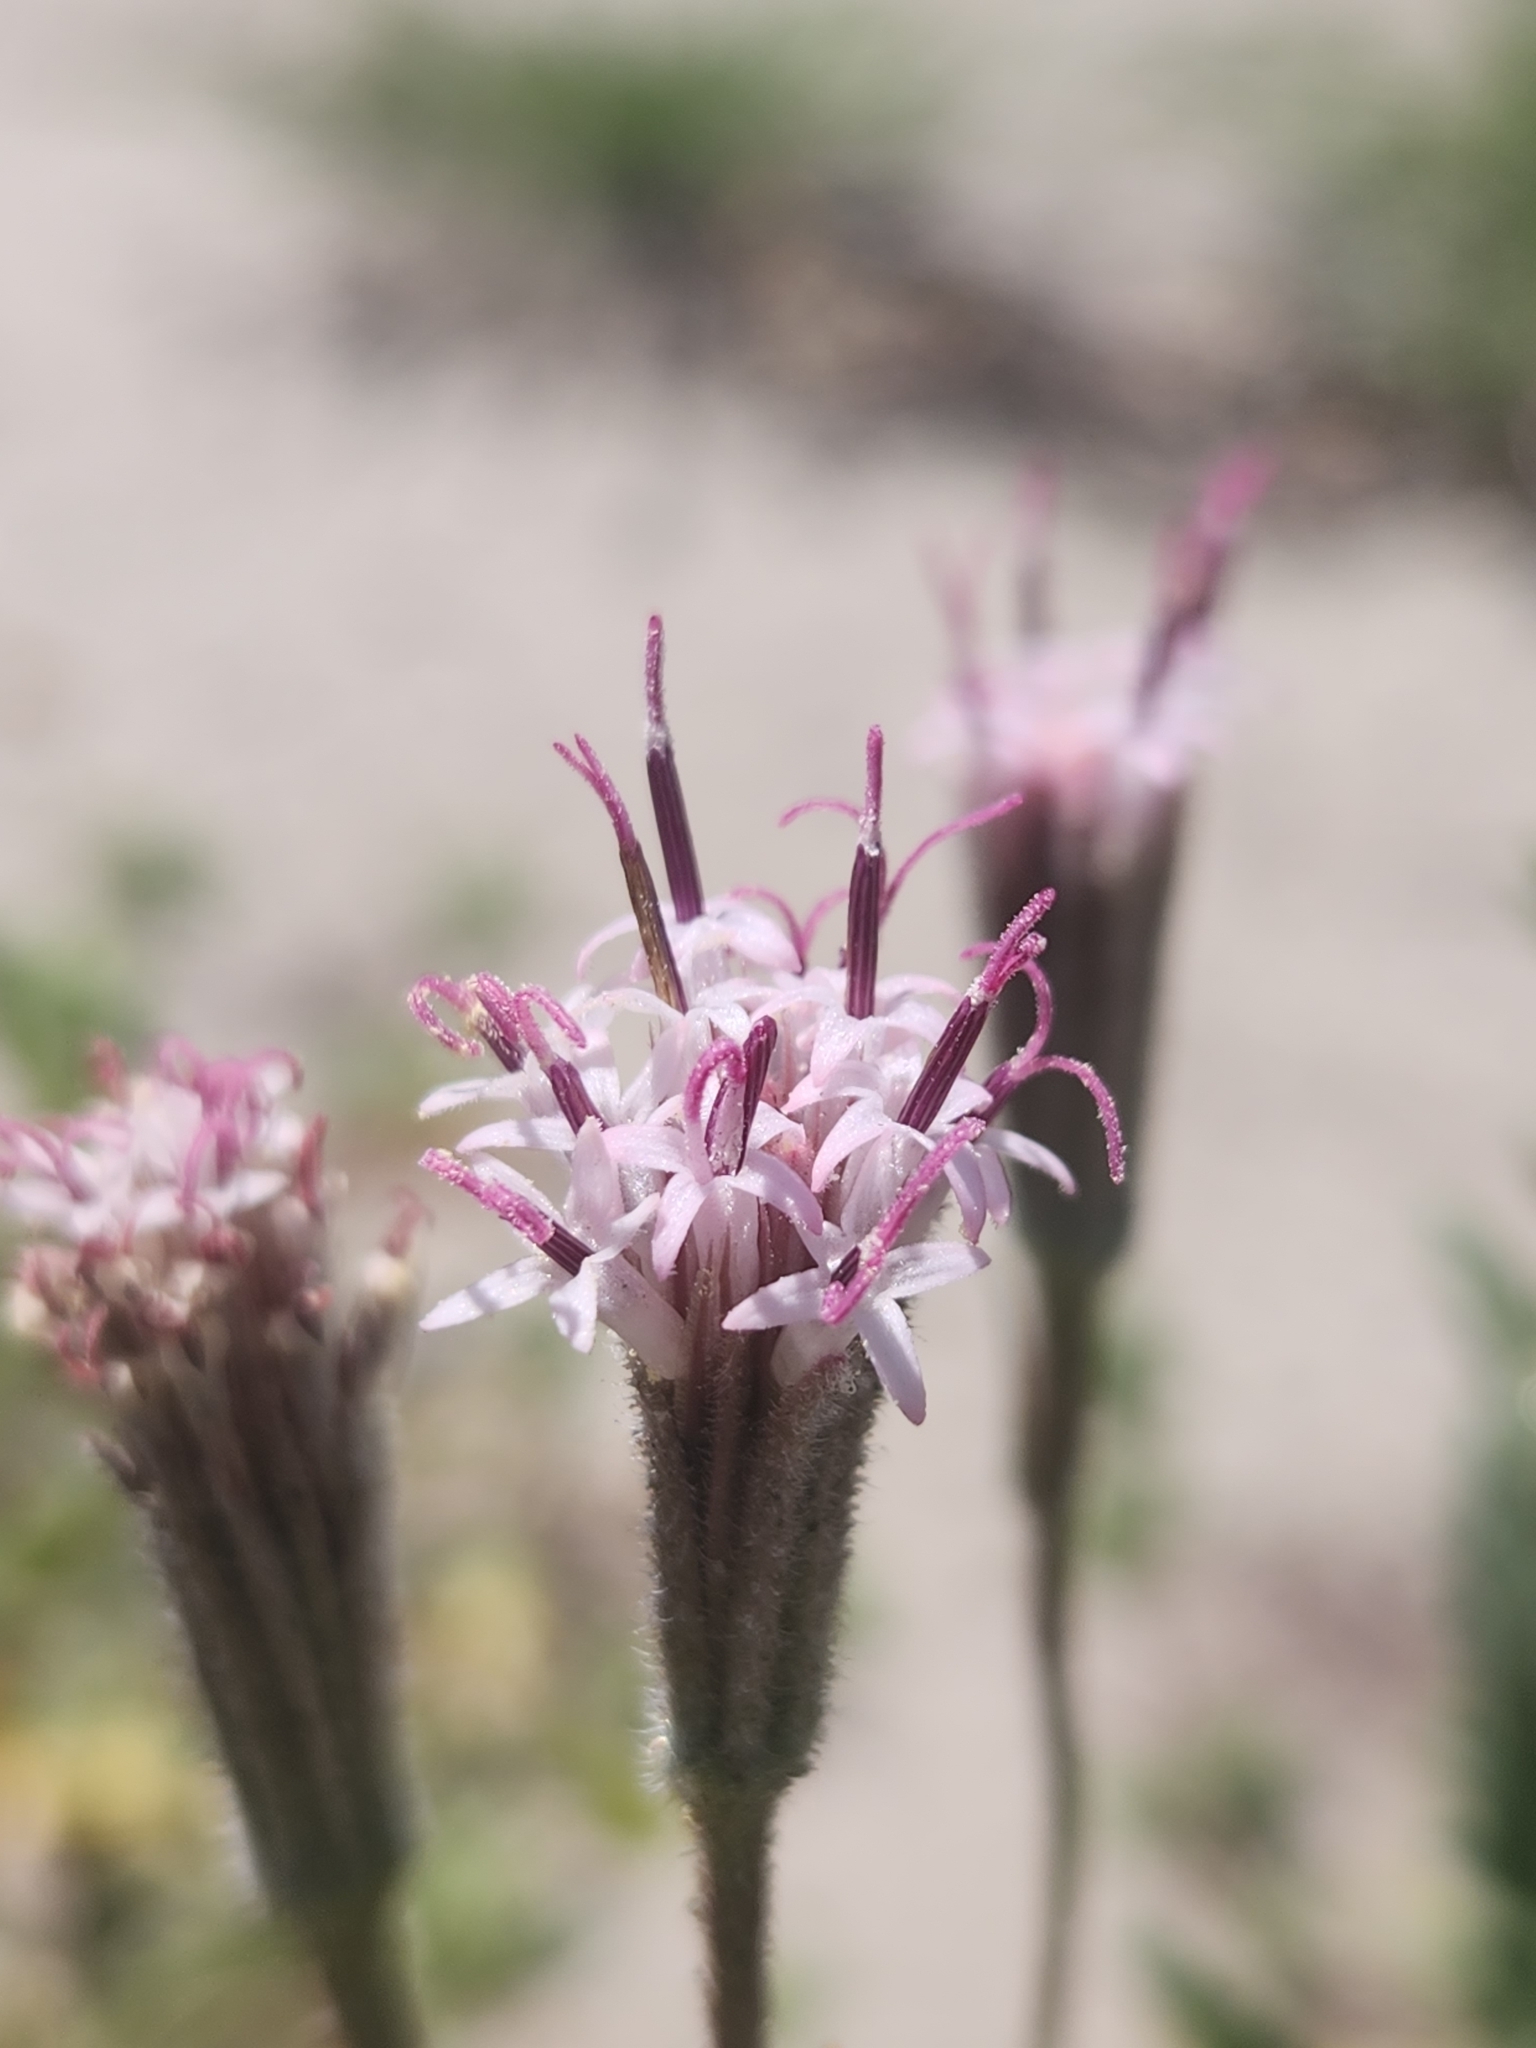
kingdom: Plantae
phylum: Tracheophyta
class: Magnoliopsida
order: Asterales
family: Asteraceae
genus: Palafoxia
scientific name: Palafoxia arida
